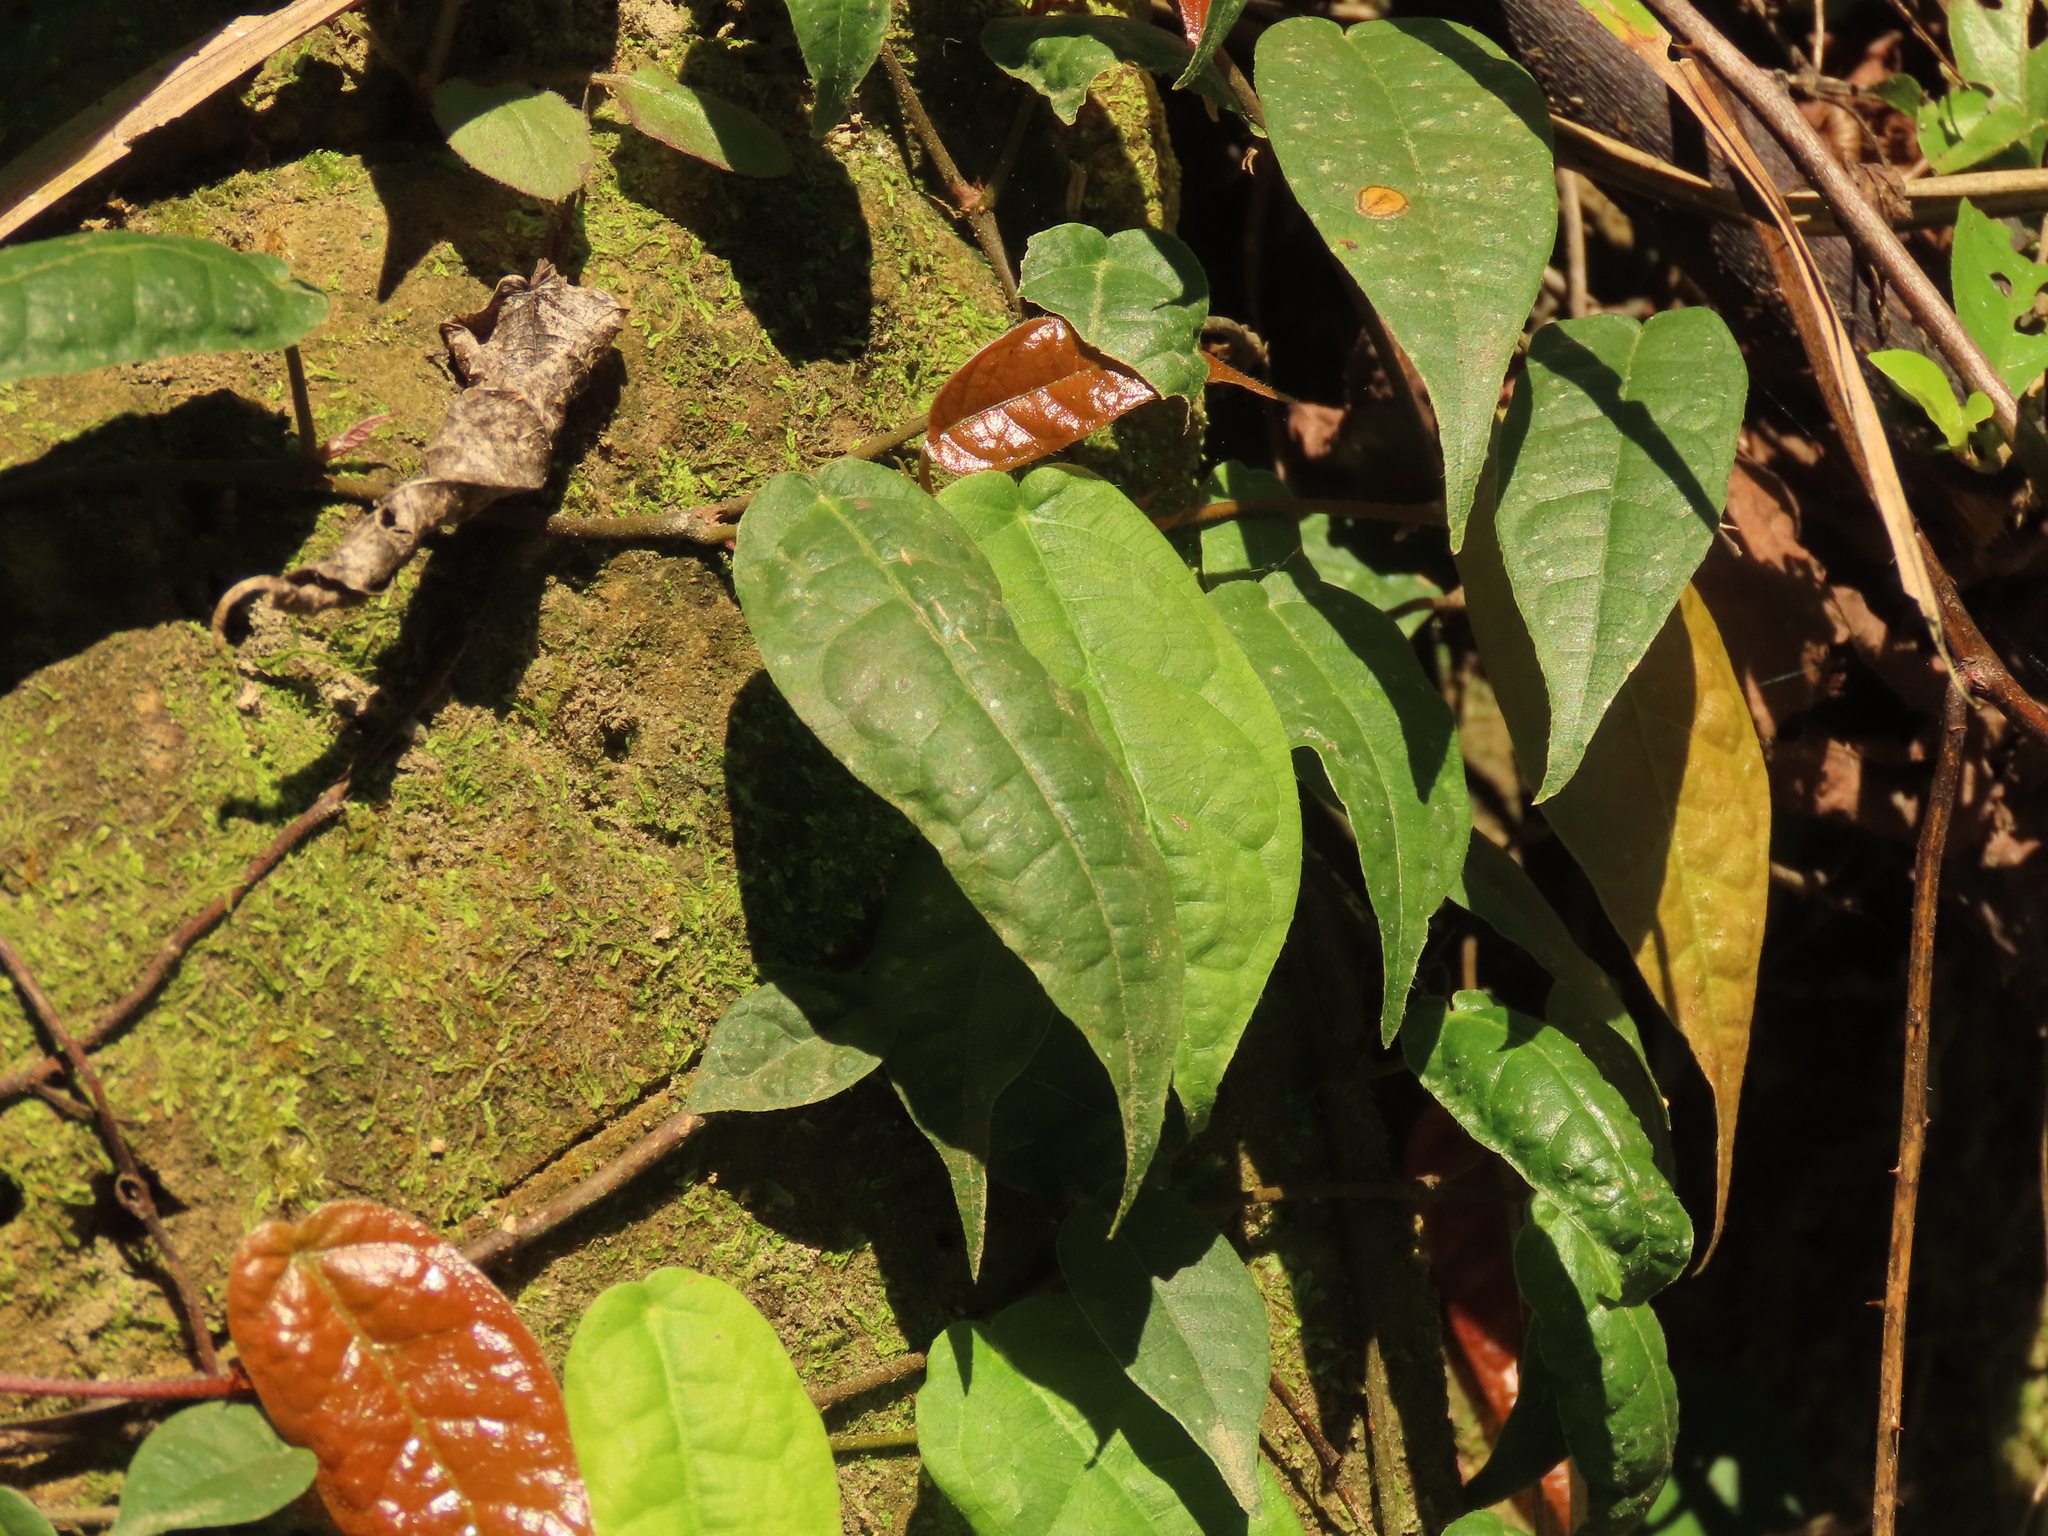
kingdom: Plantae
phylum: Tracheophyta
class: Magnoliopsida
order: Rosales
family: Moraceae
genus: Ficus
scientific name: Ficus sarmentosa
